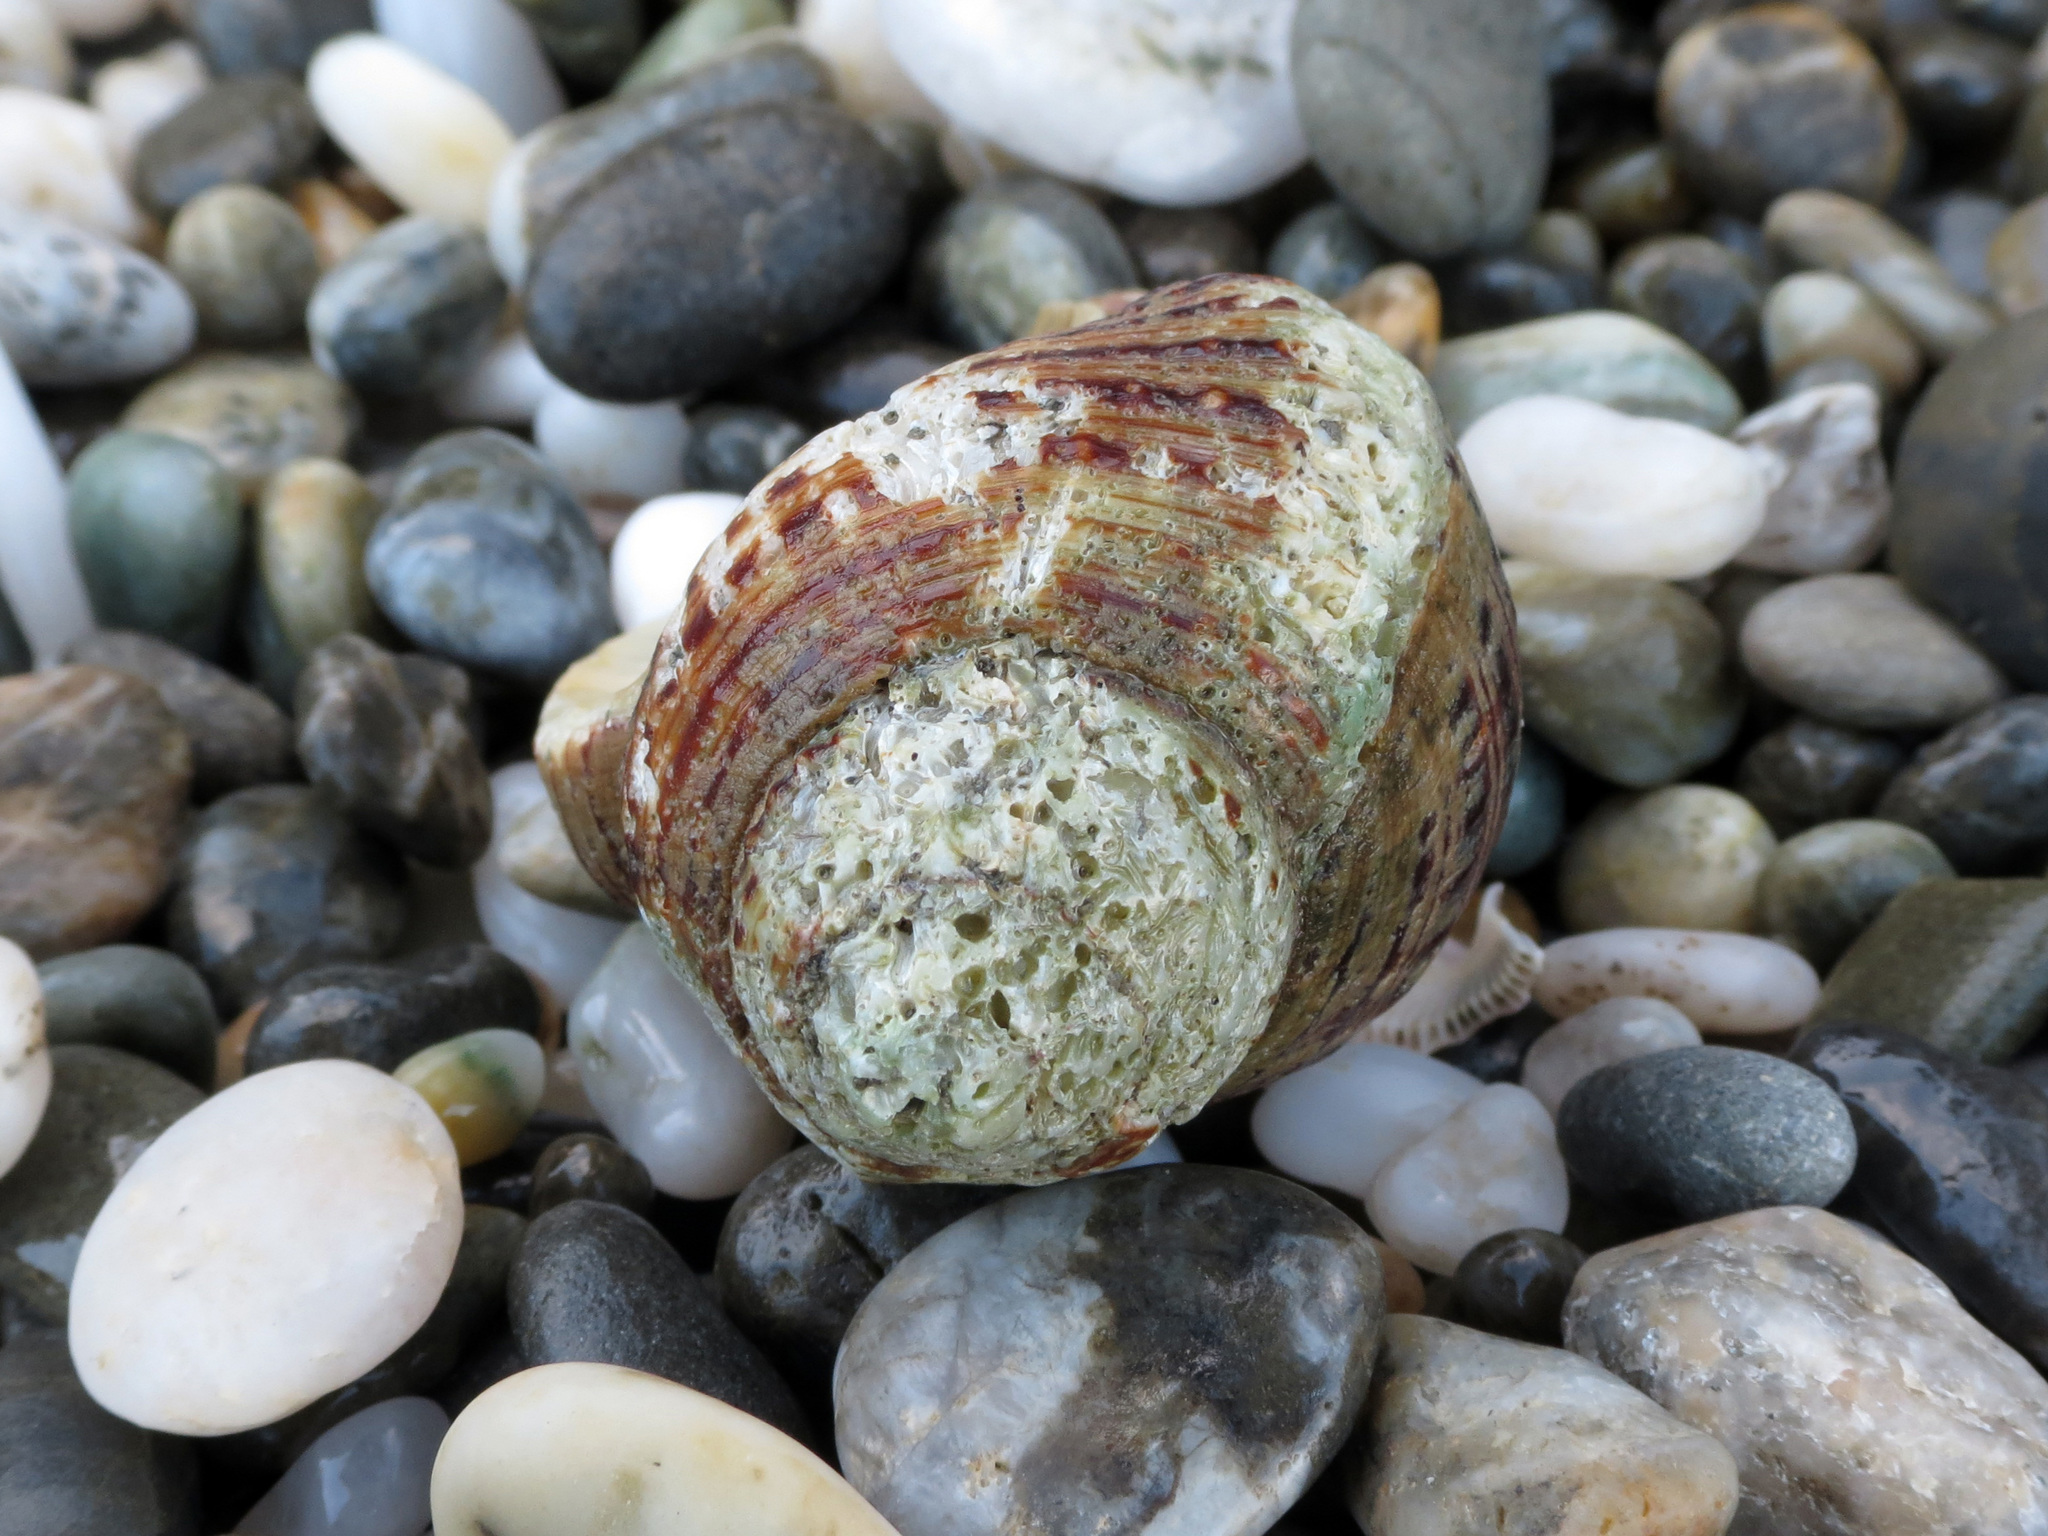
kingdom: Animalia
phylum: Mollusca
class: Gastropoda
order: Littorinimorpha
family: Cymatiidae
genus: Argobuccinum
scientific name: Argobuccinum pustulosum
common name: Pustular triton
